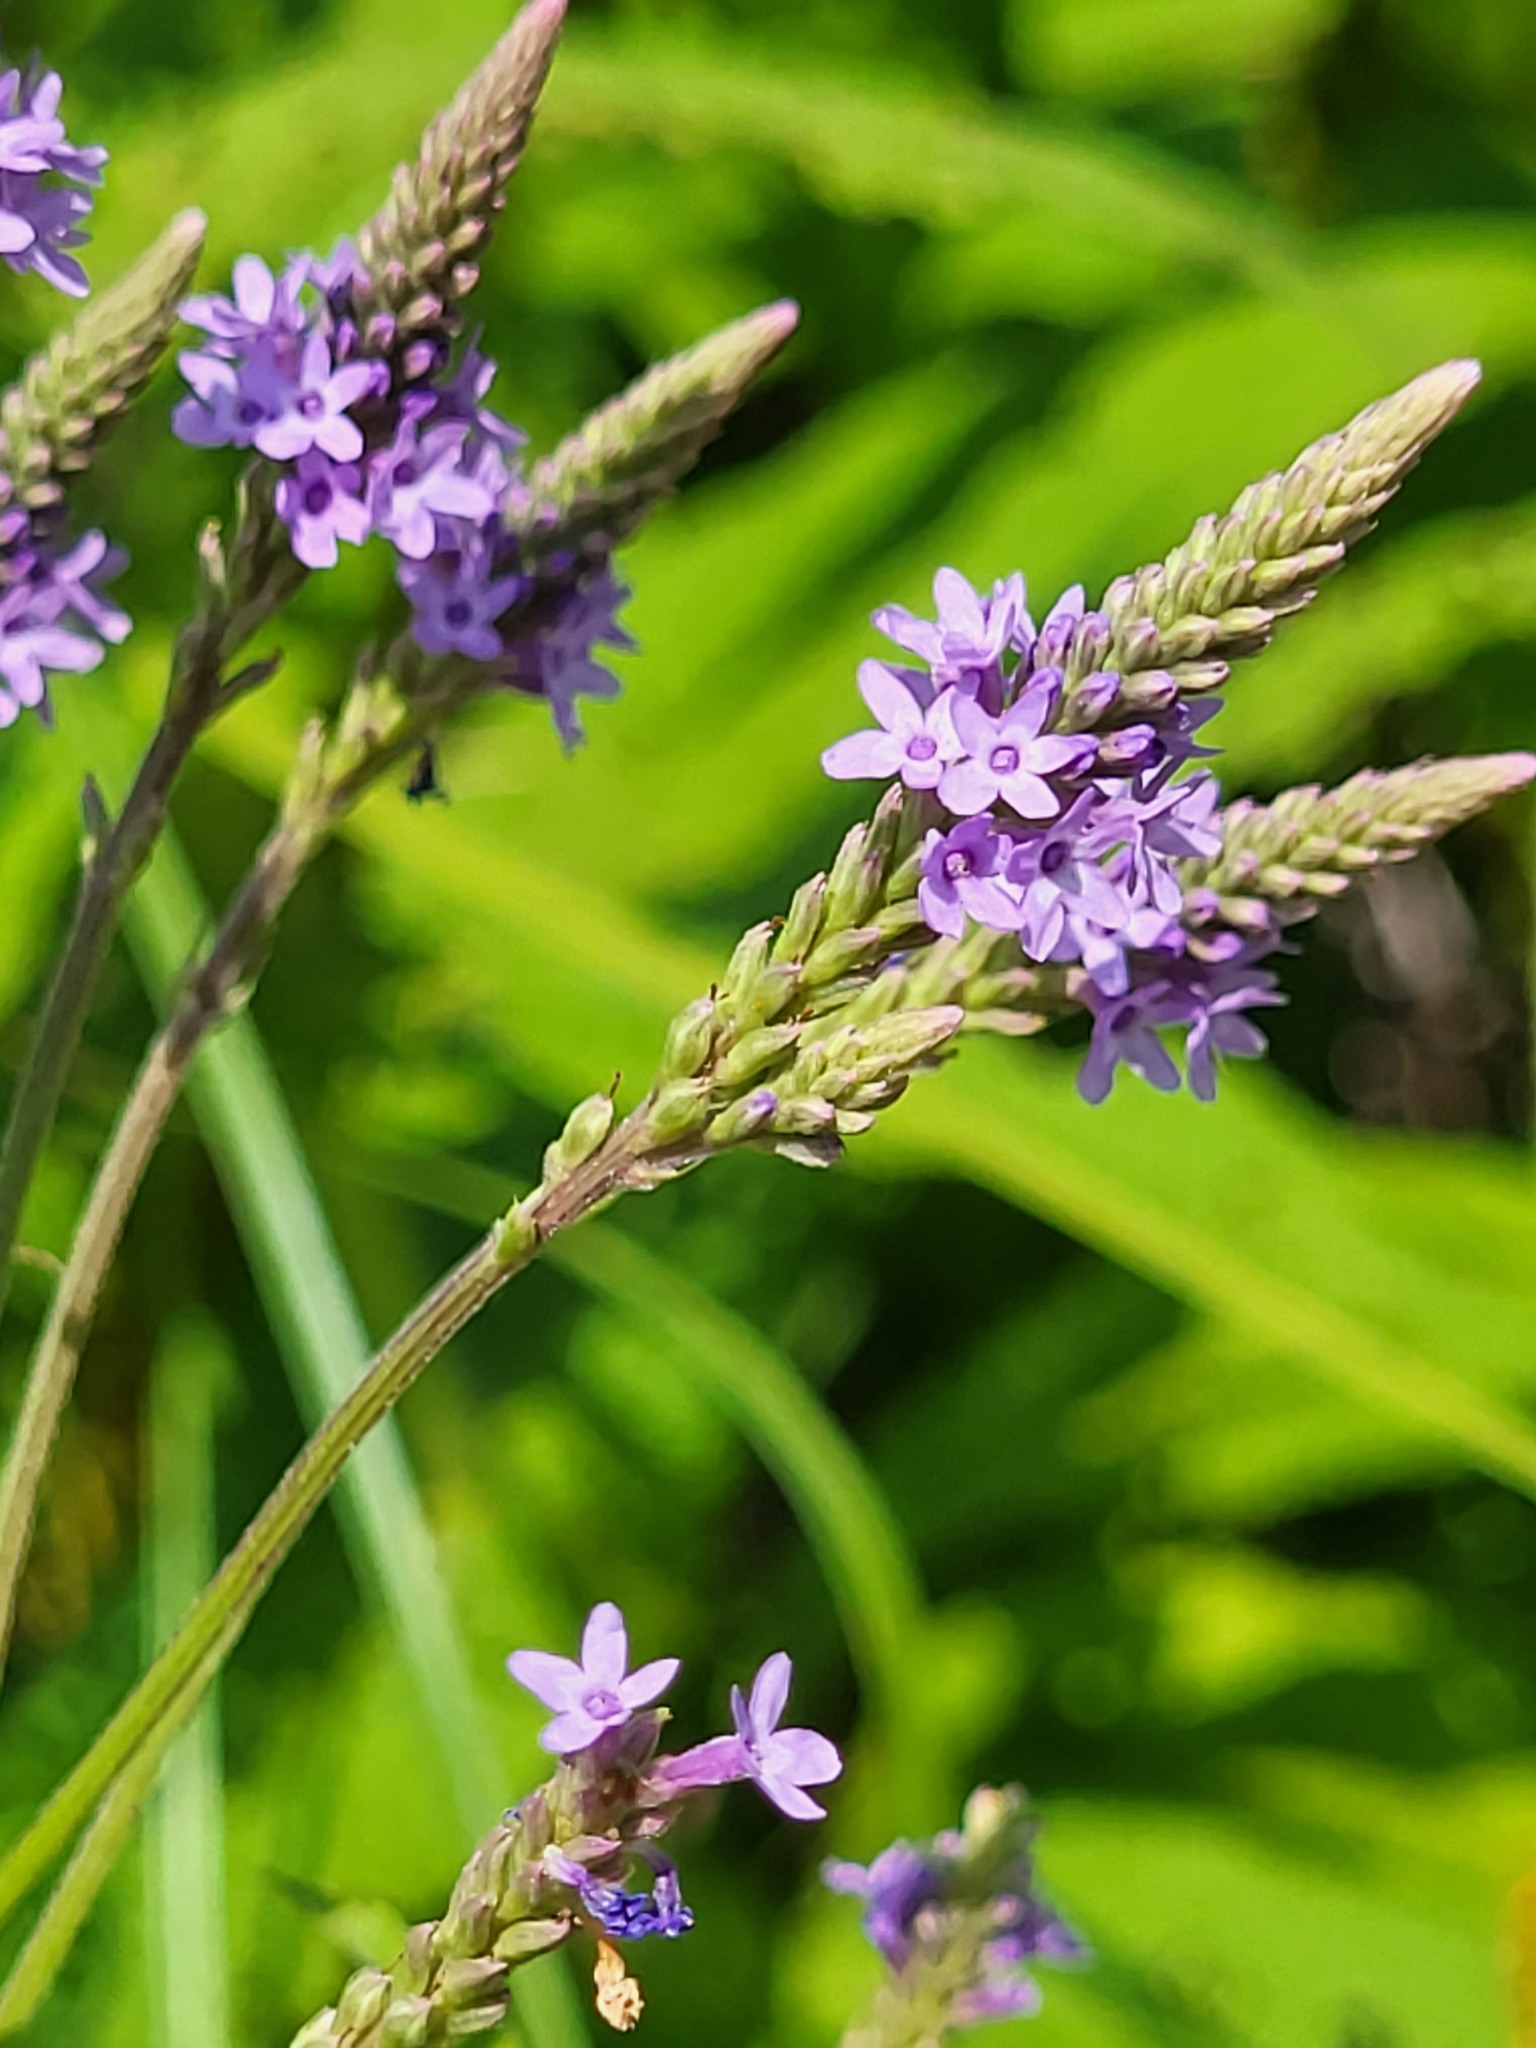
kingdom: Plantae
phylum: Tracheophyta
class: Magnoliopsida
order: Lamiales
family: Verbenaceae
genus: Verbena
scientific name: Verbena hastata
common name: American blue vervain
